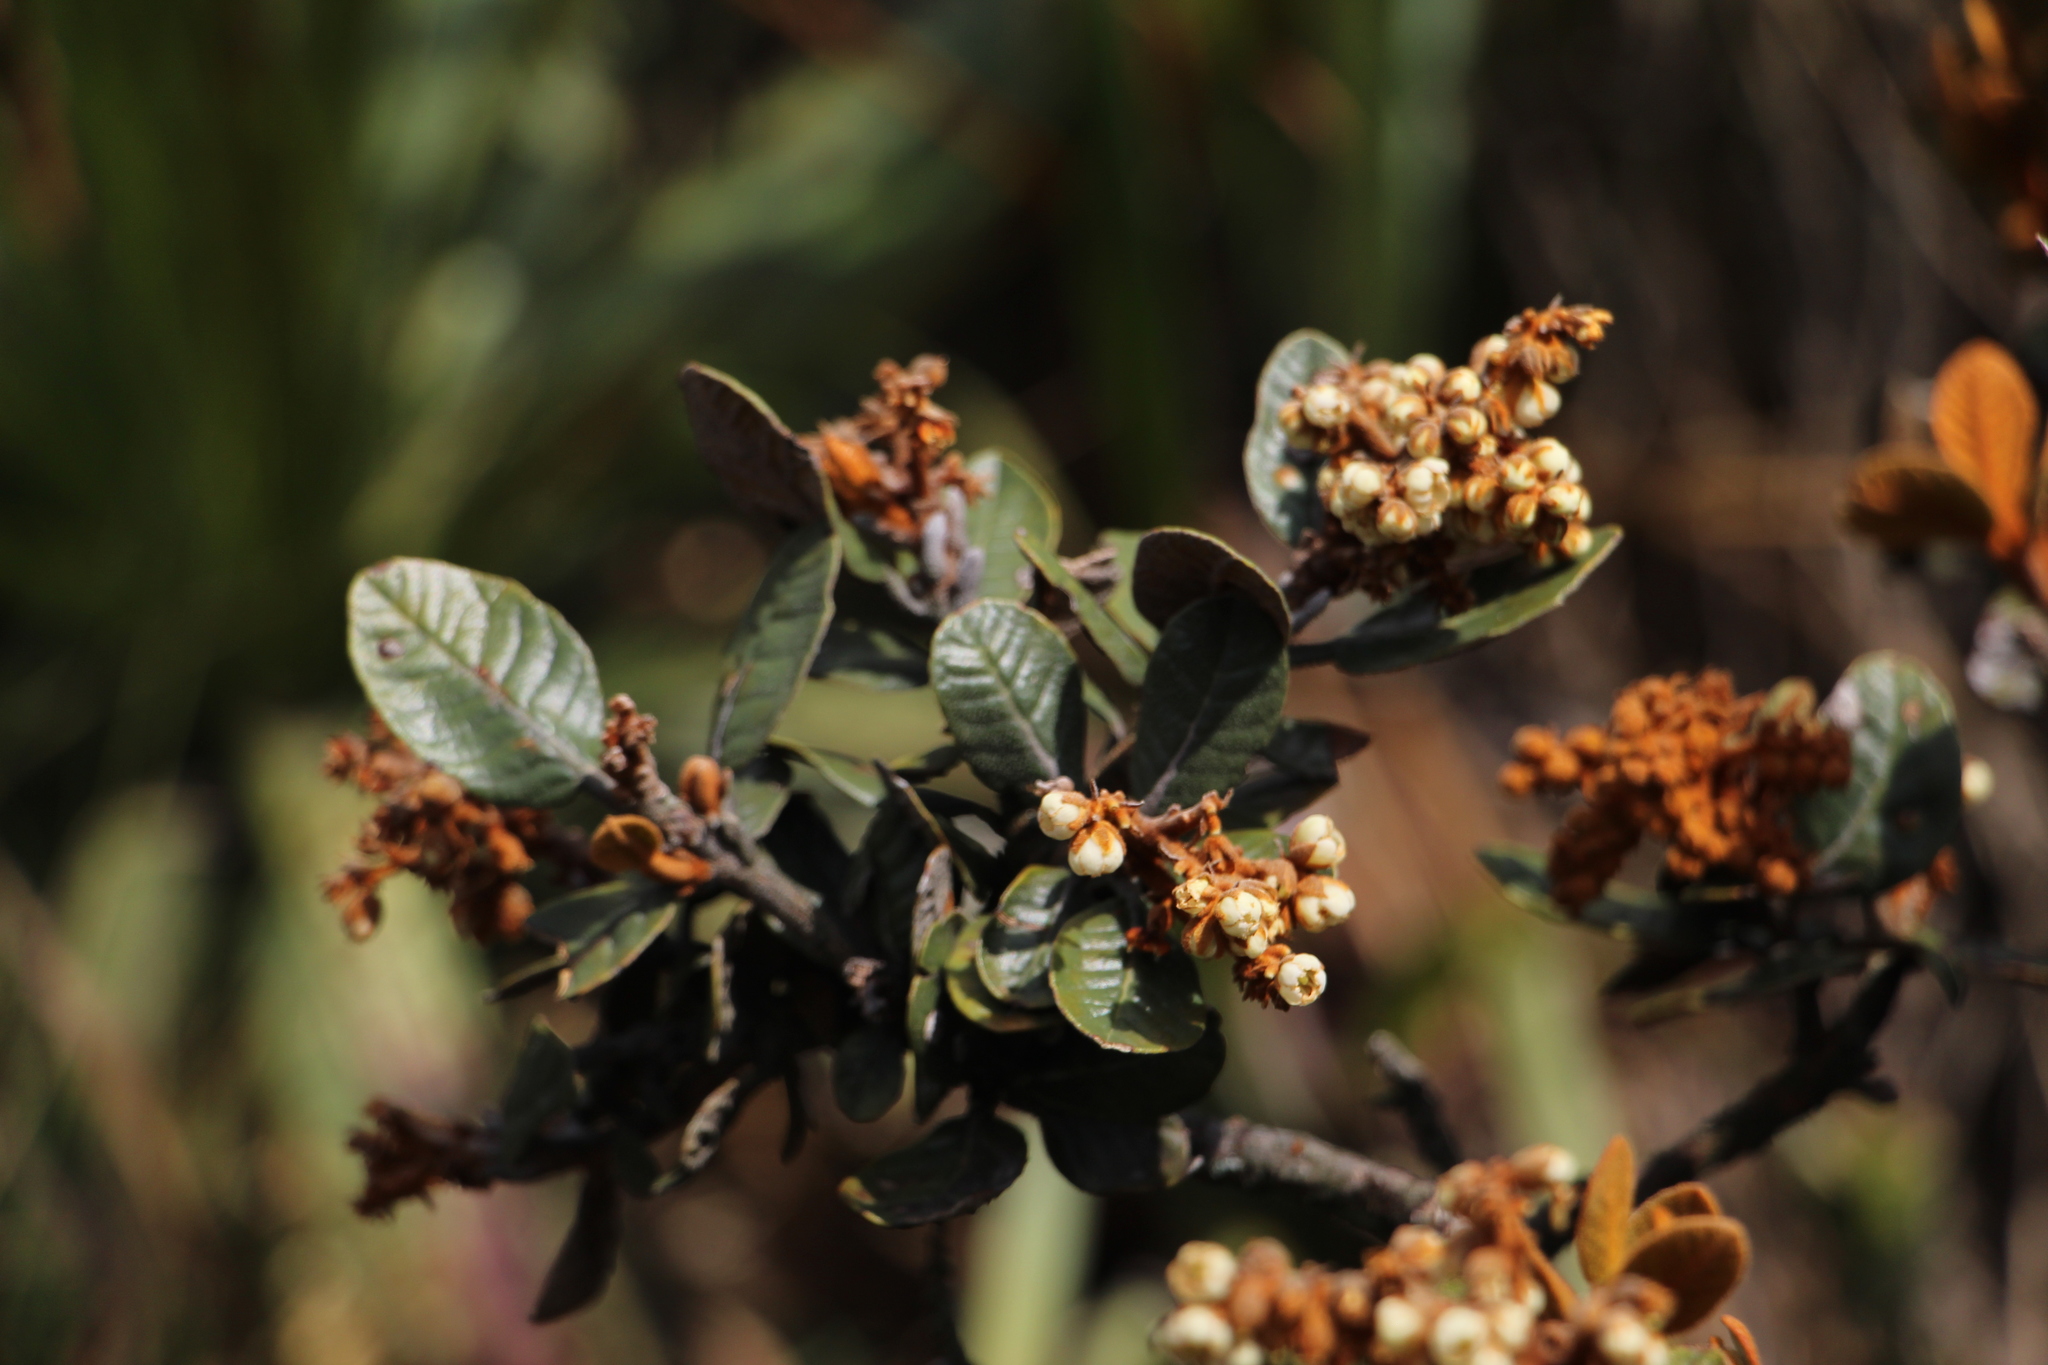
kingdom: Plantae
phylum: Tracheophyta
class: Magnoliopsida
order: Ericales
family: Clethraceae
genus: Clethra
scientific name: Clethra fimbriata
